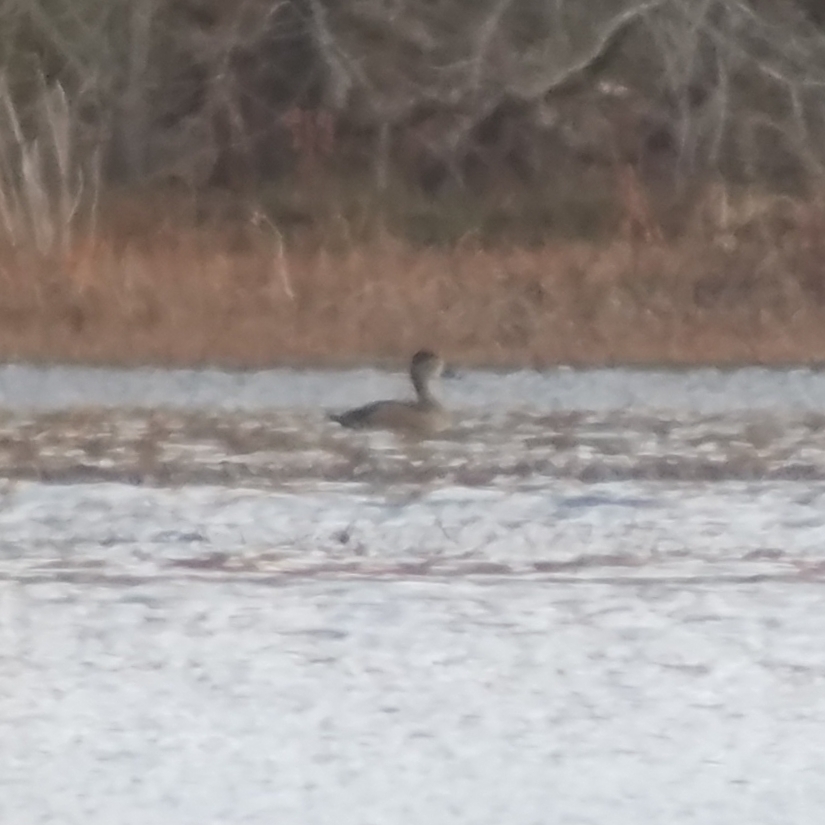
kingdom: Animalia
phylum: Chordata
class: Aves
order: Anseriformes
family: Anatidae
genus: Aythya
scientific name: Aythya collaris
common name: Ring-necked duck
